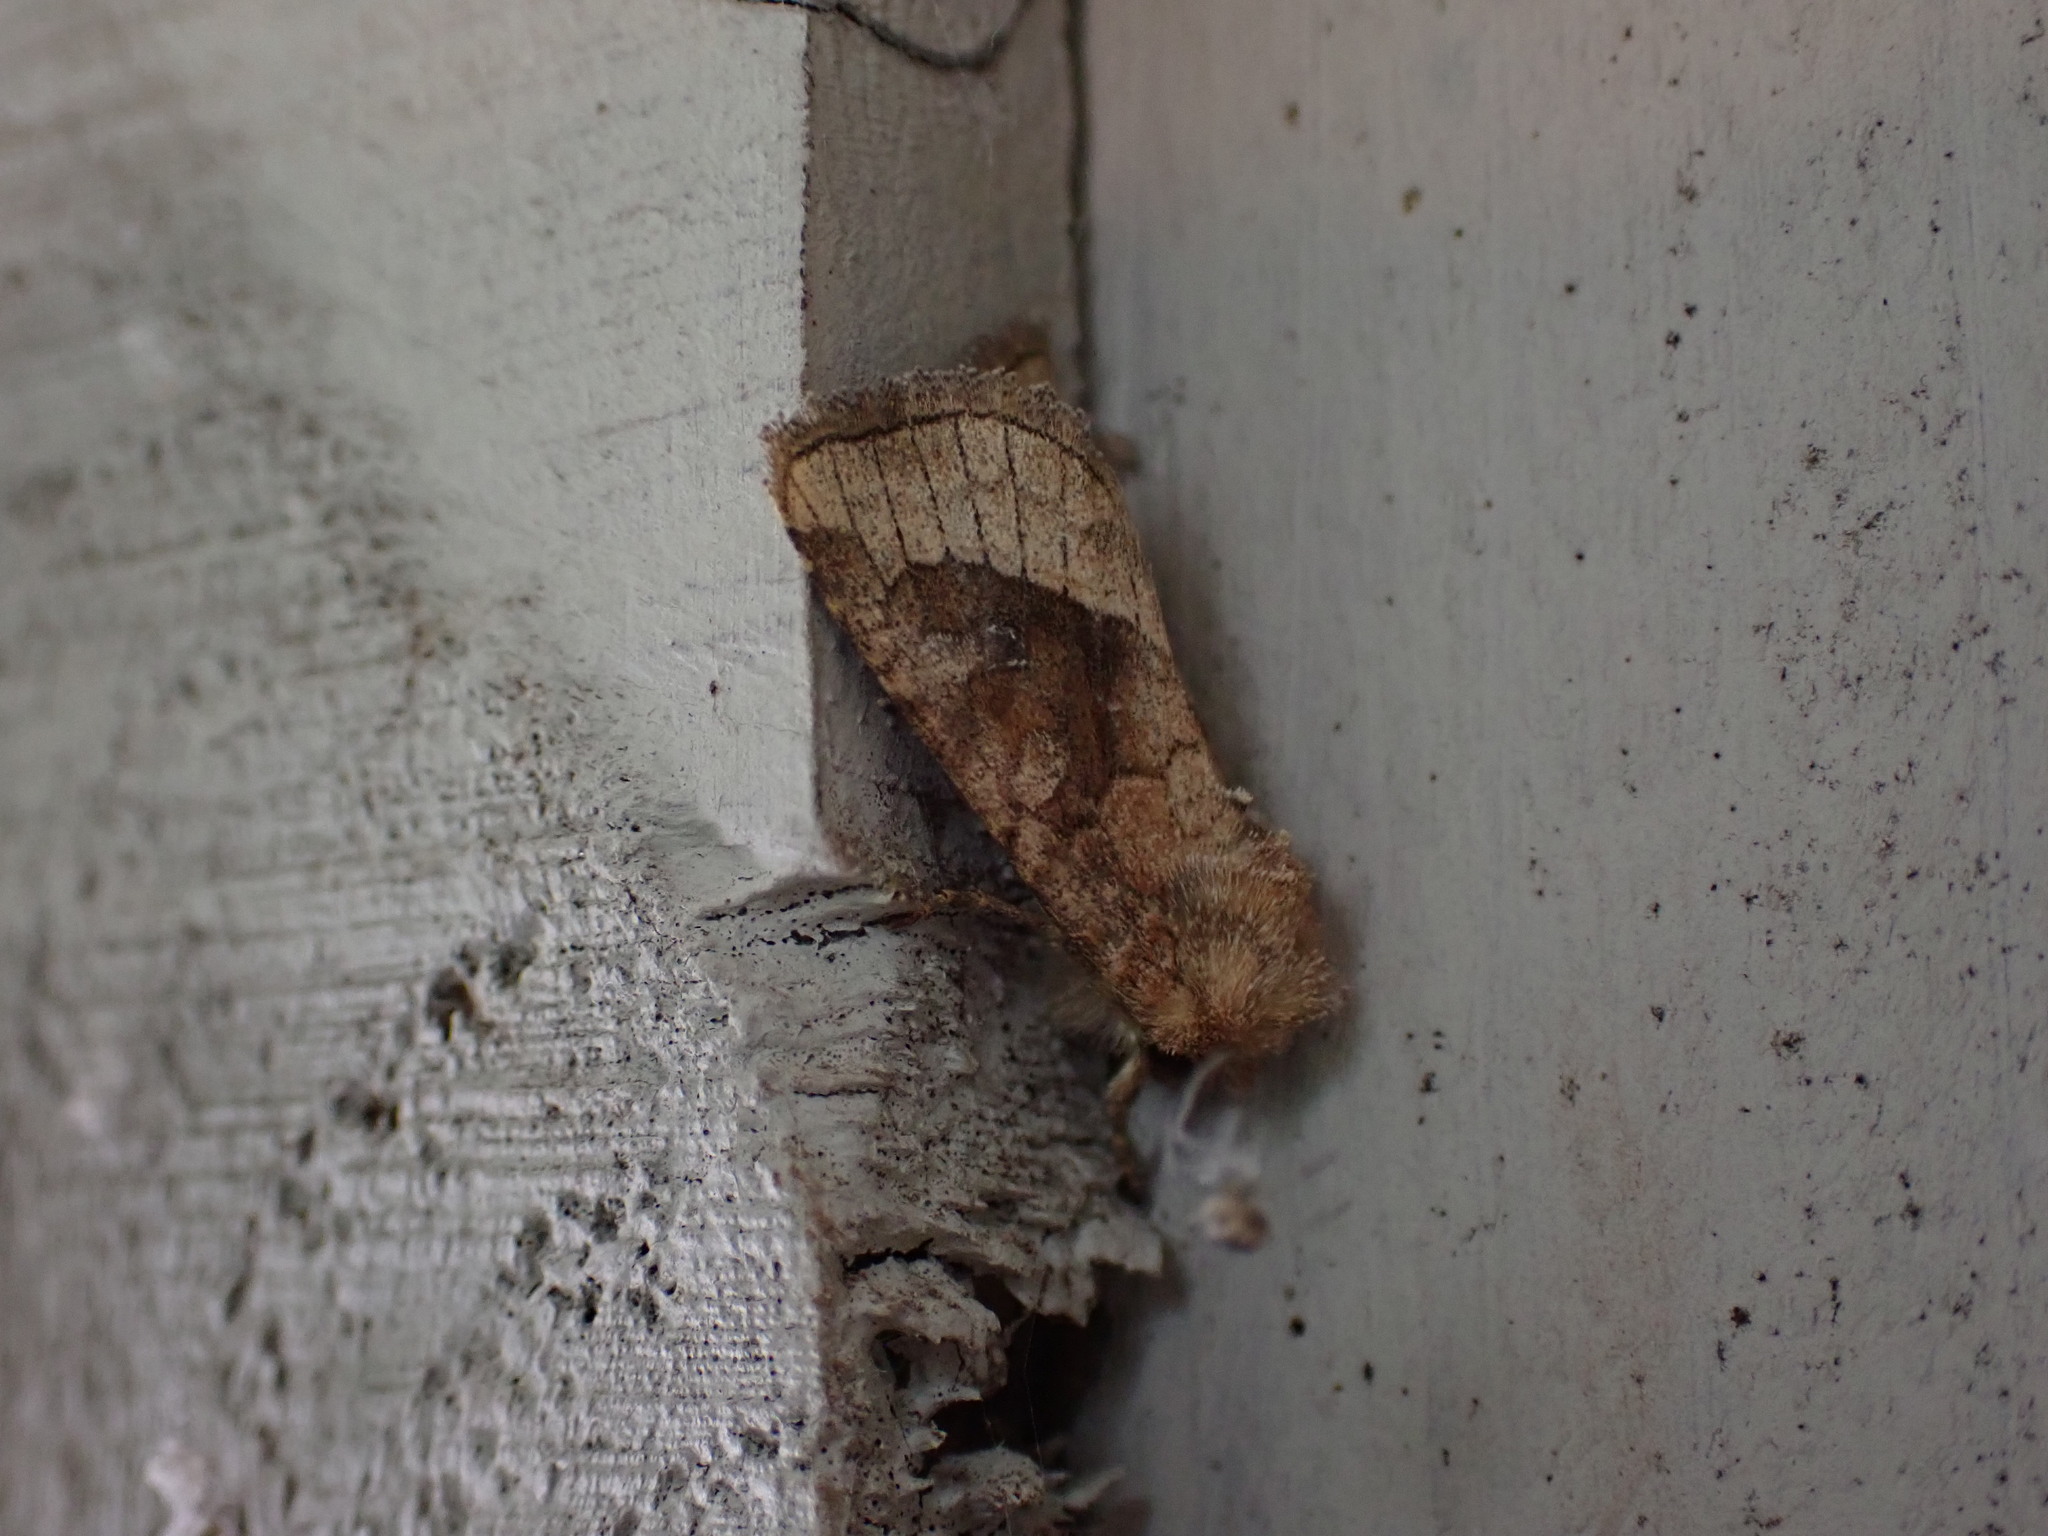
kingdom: Animalia
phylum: Arthropoda
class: Insecta
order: Lepidoptera
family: Noctuidae
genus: Lacinipolia
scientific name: Lacinipolia lorea
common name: Bridled arches moth
